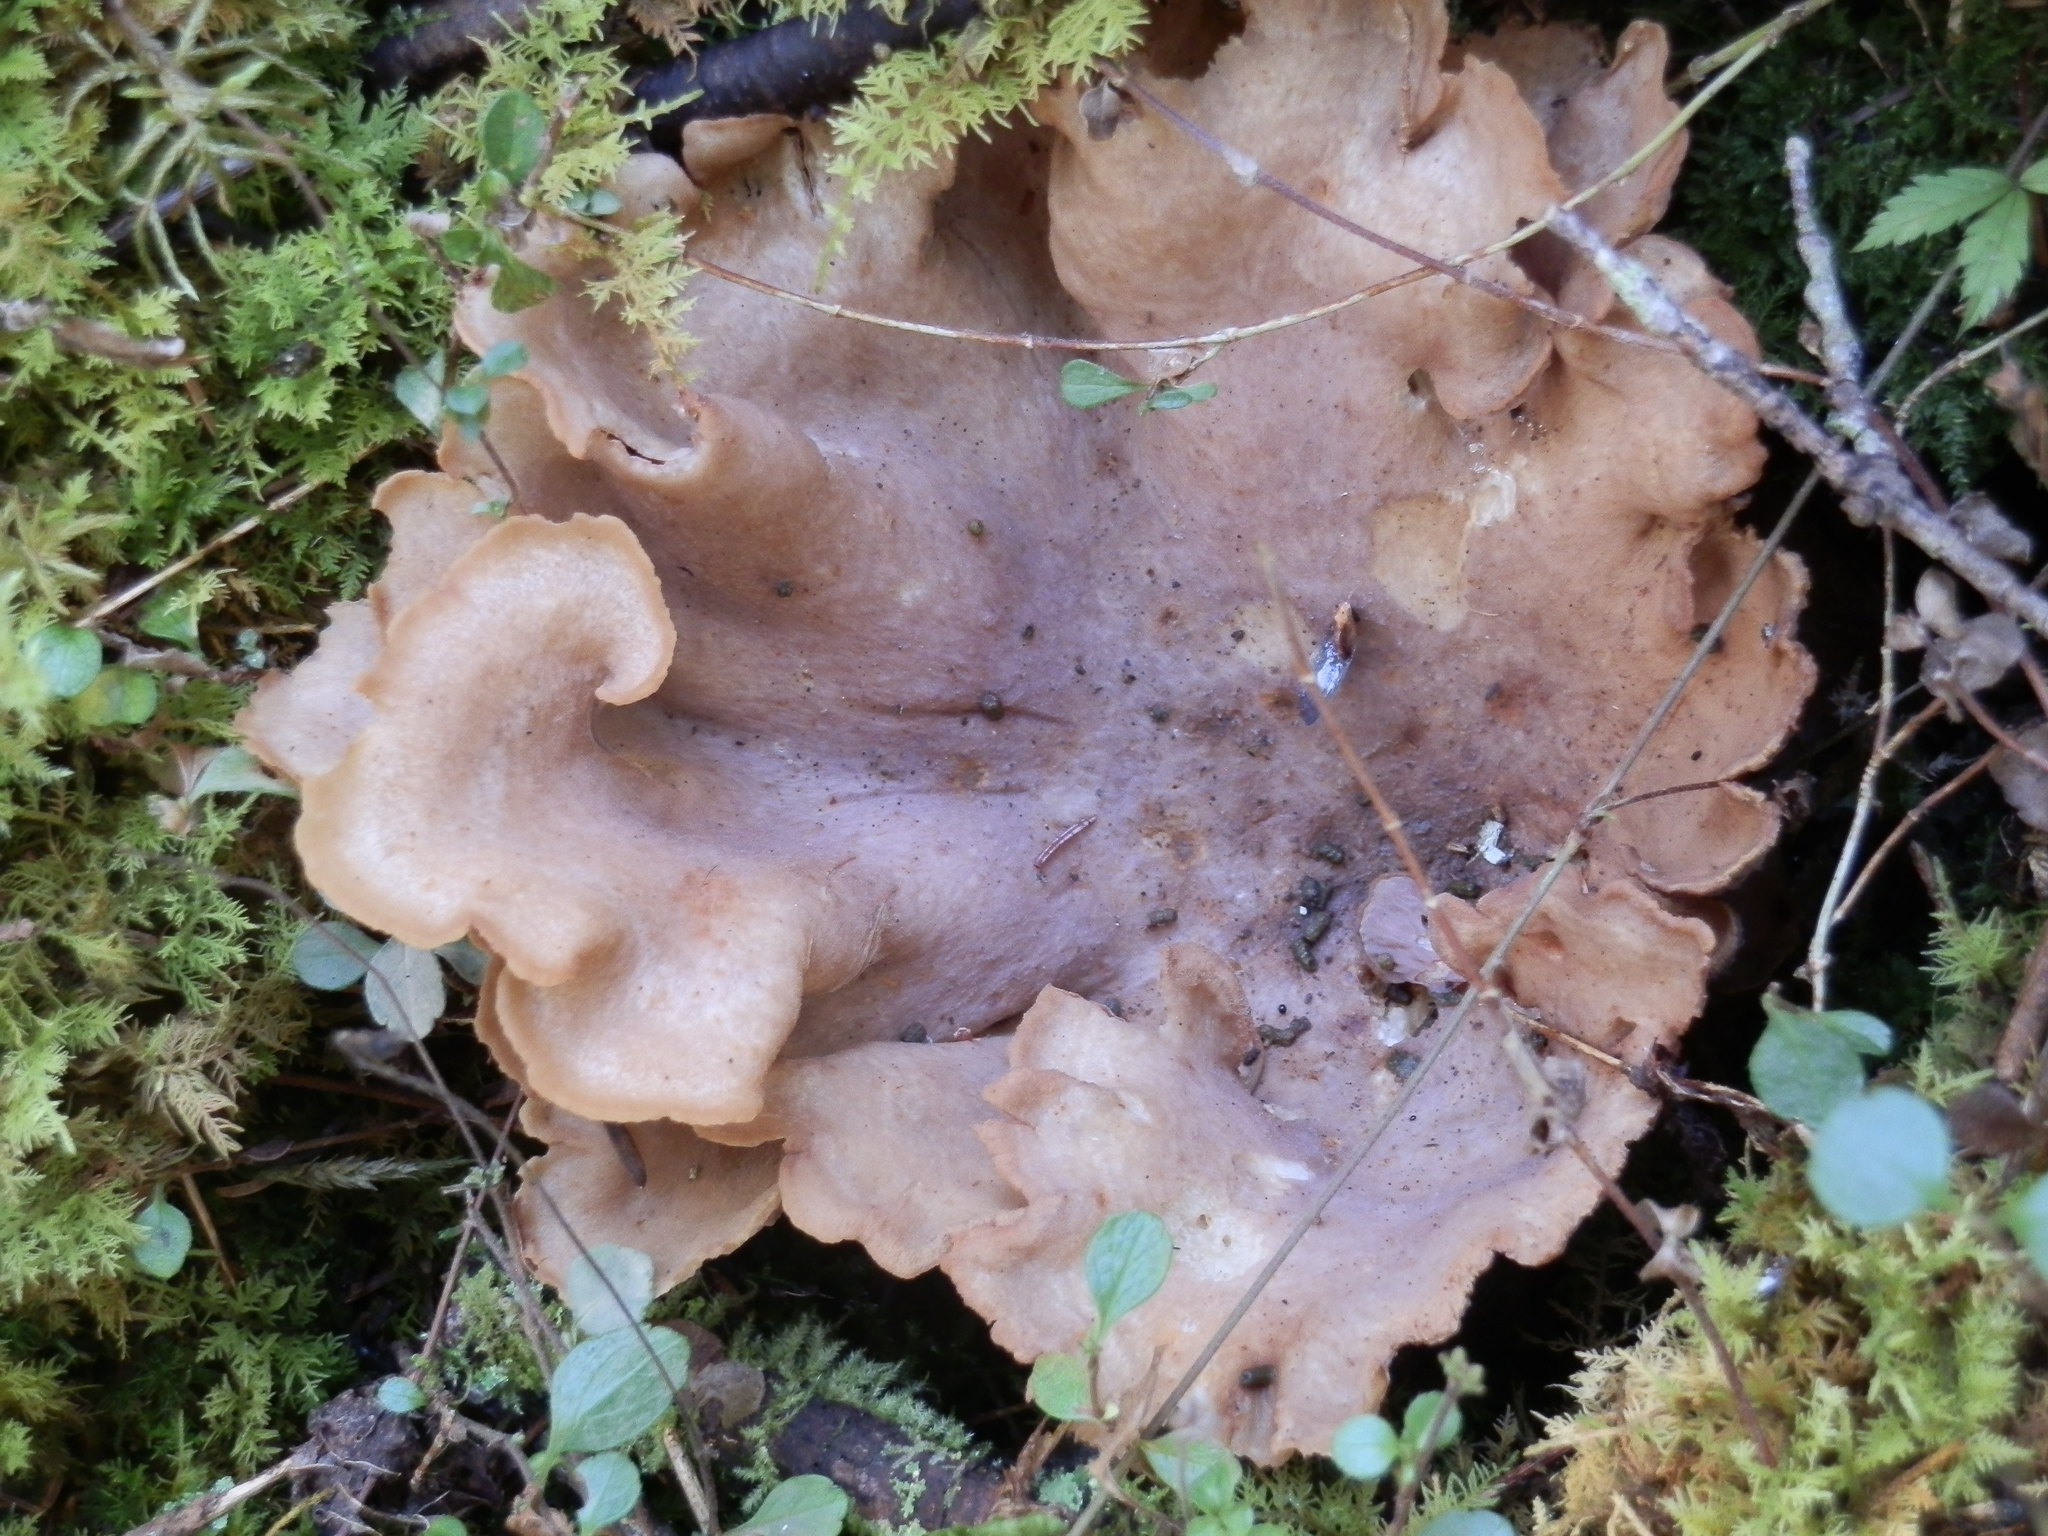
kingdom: Fungi
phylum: Basidiomycota
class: Agaricomycetes
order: Gomphales
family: Gomphaceae
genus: Gomphus
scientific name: Gomphus clavatus
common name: Pig's ear
